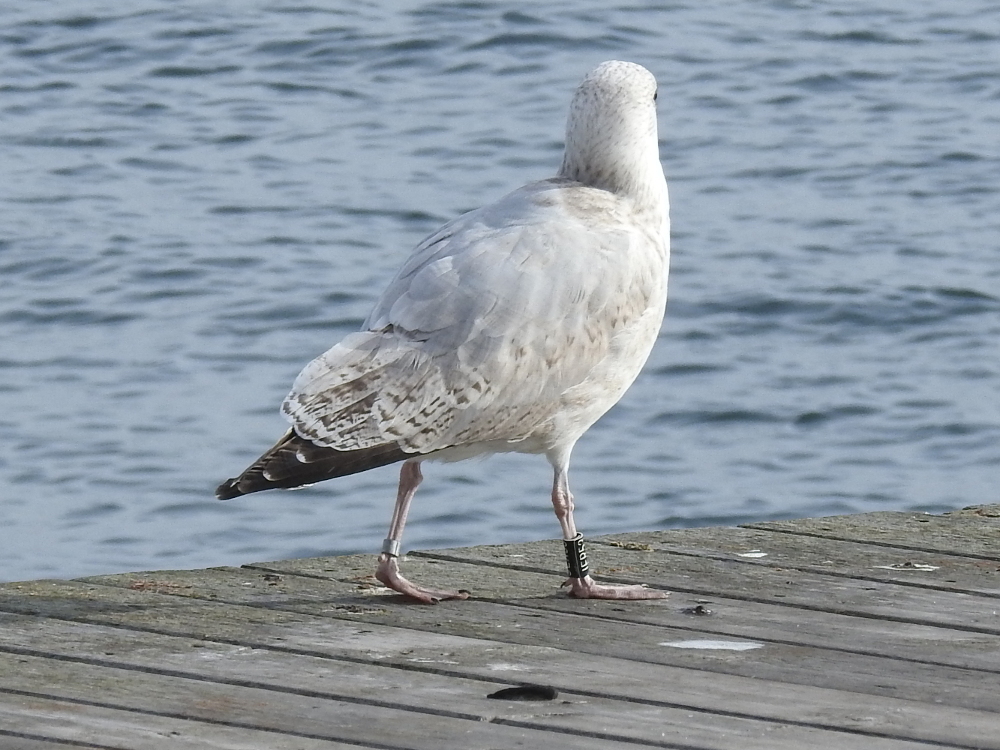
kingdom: Animalia
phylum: Chordata
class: Aves
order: Charadriiformes
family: Laridae
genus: Larus
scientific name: Larus argentatus
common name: Herring gull
